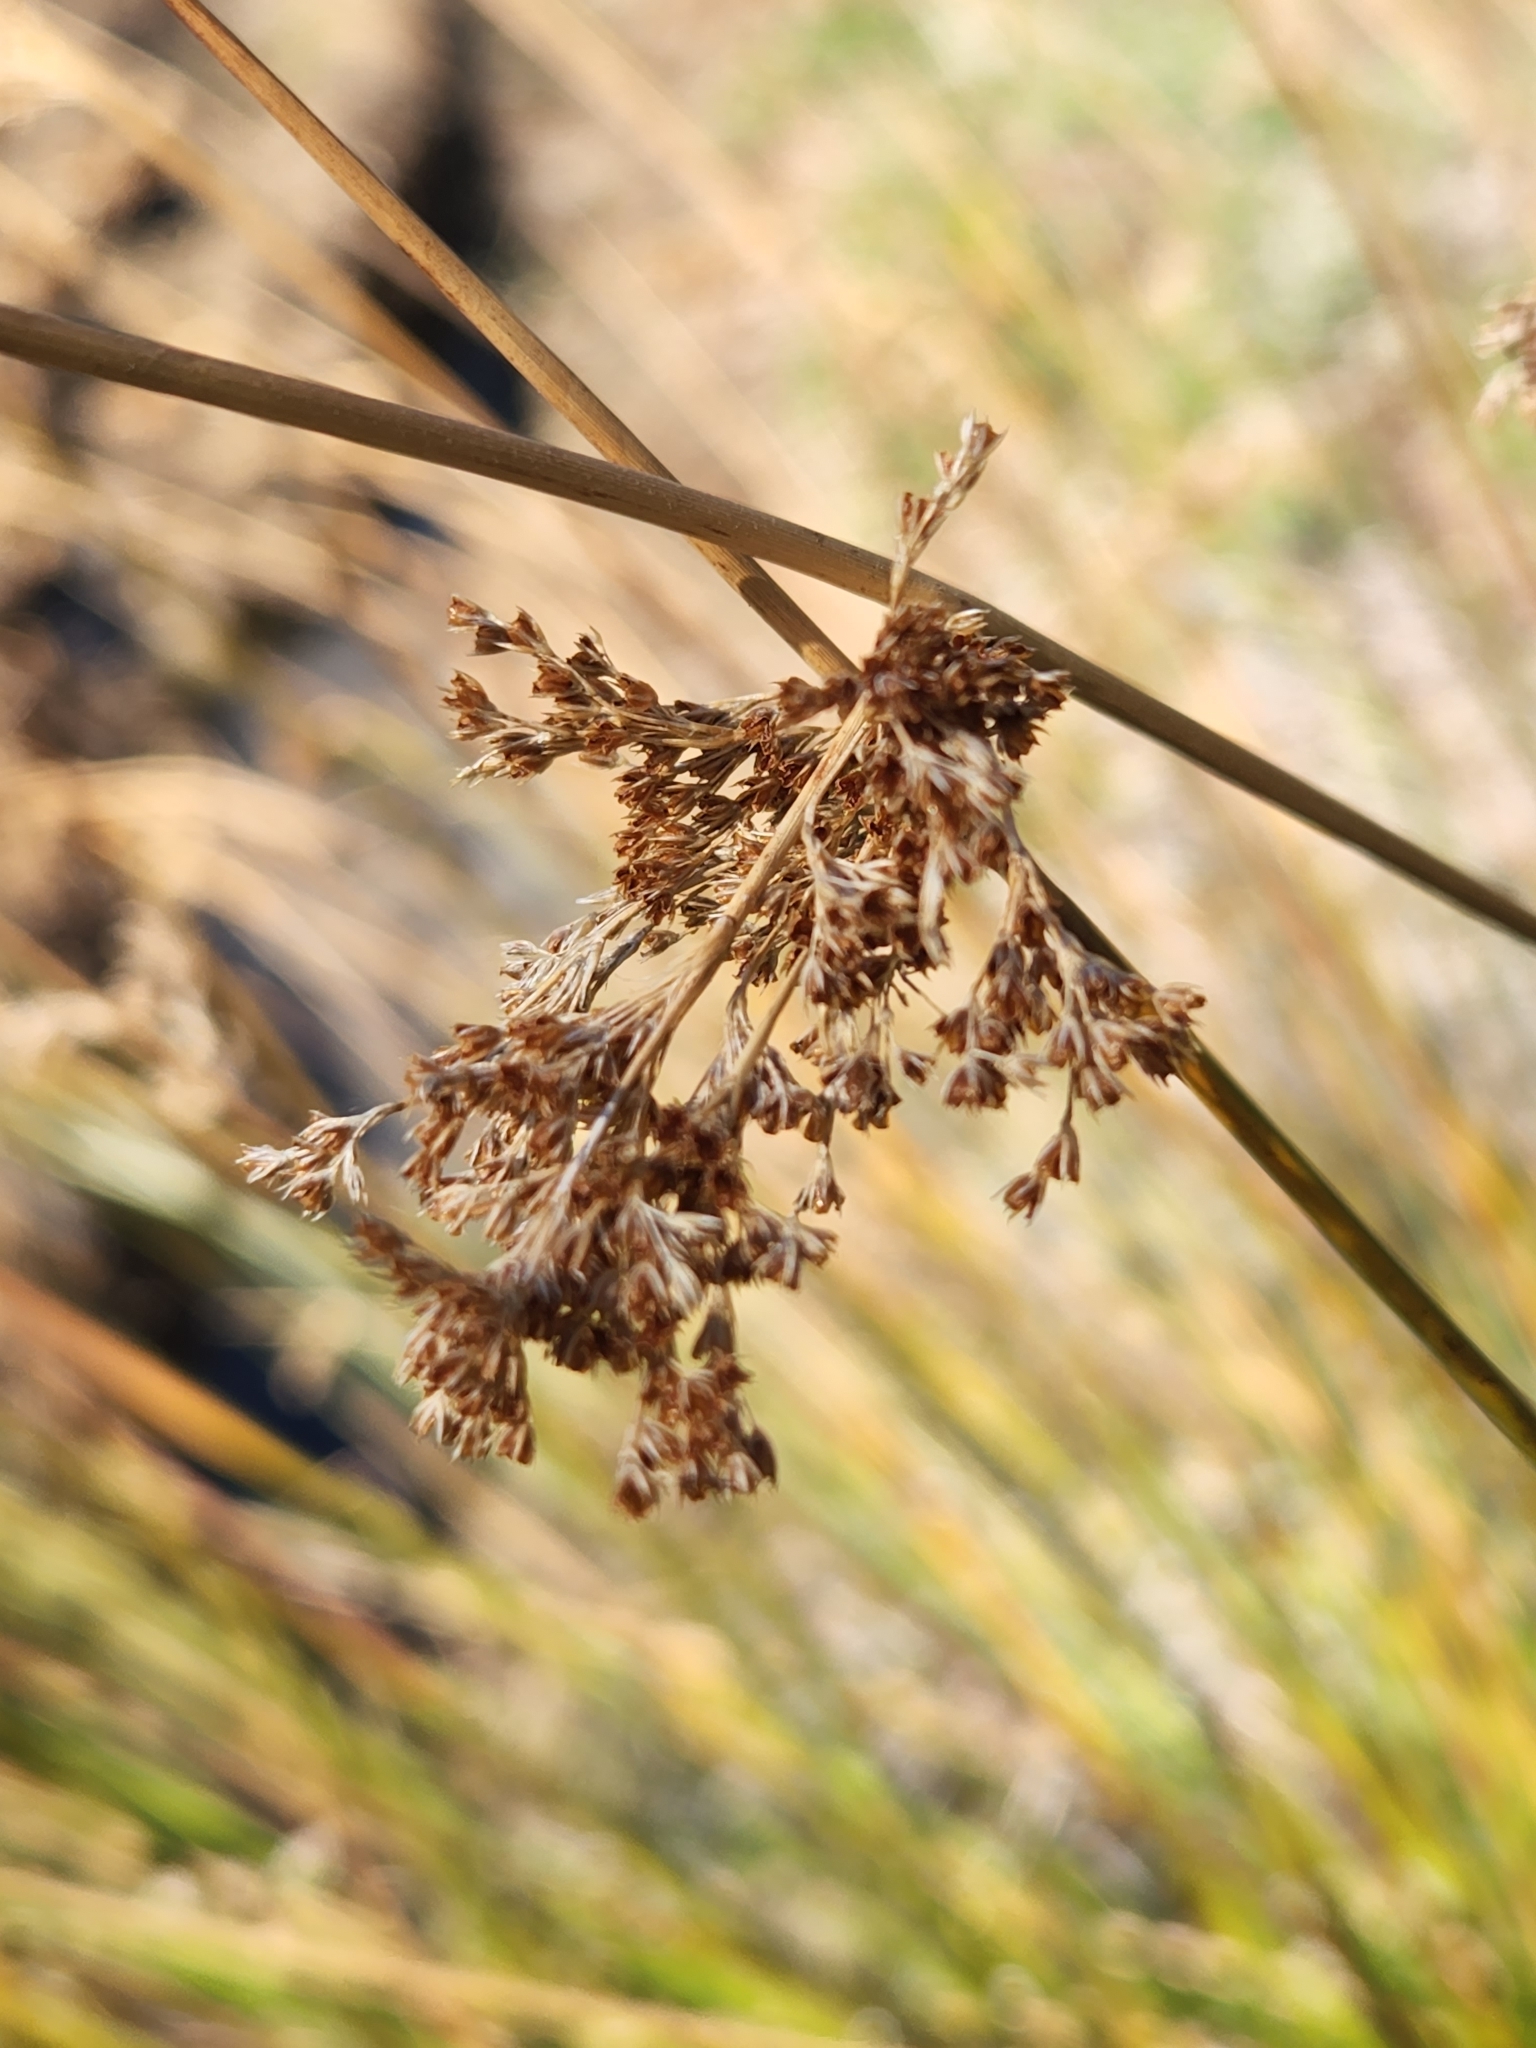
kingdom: Plantae
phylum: Tracheophyta
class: Liliopsida
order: Poales
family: Juncaceae
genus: Juncus
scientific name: Juncus effusus
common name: Soft rush
